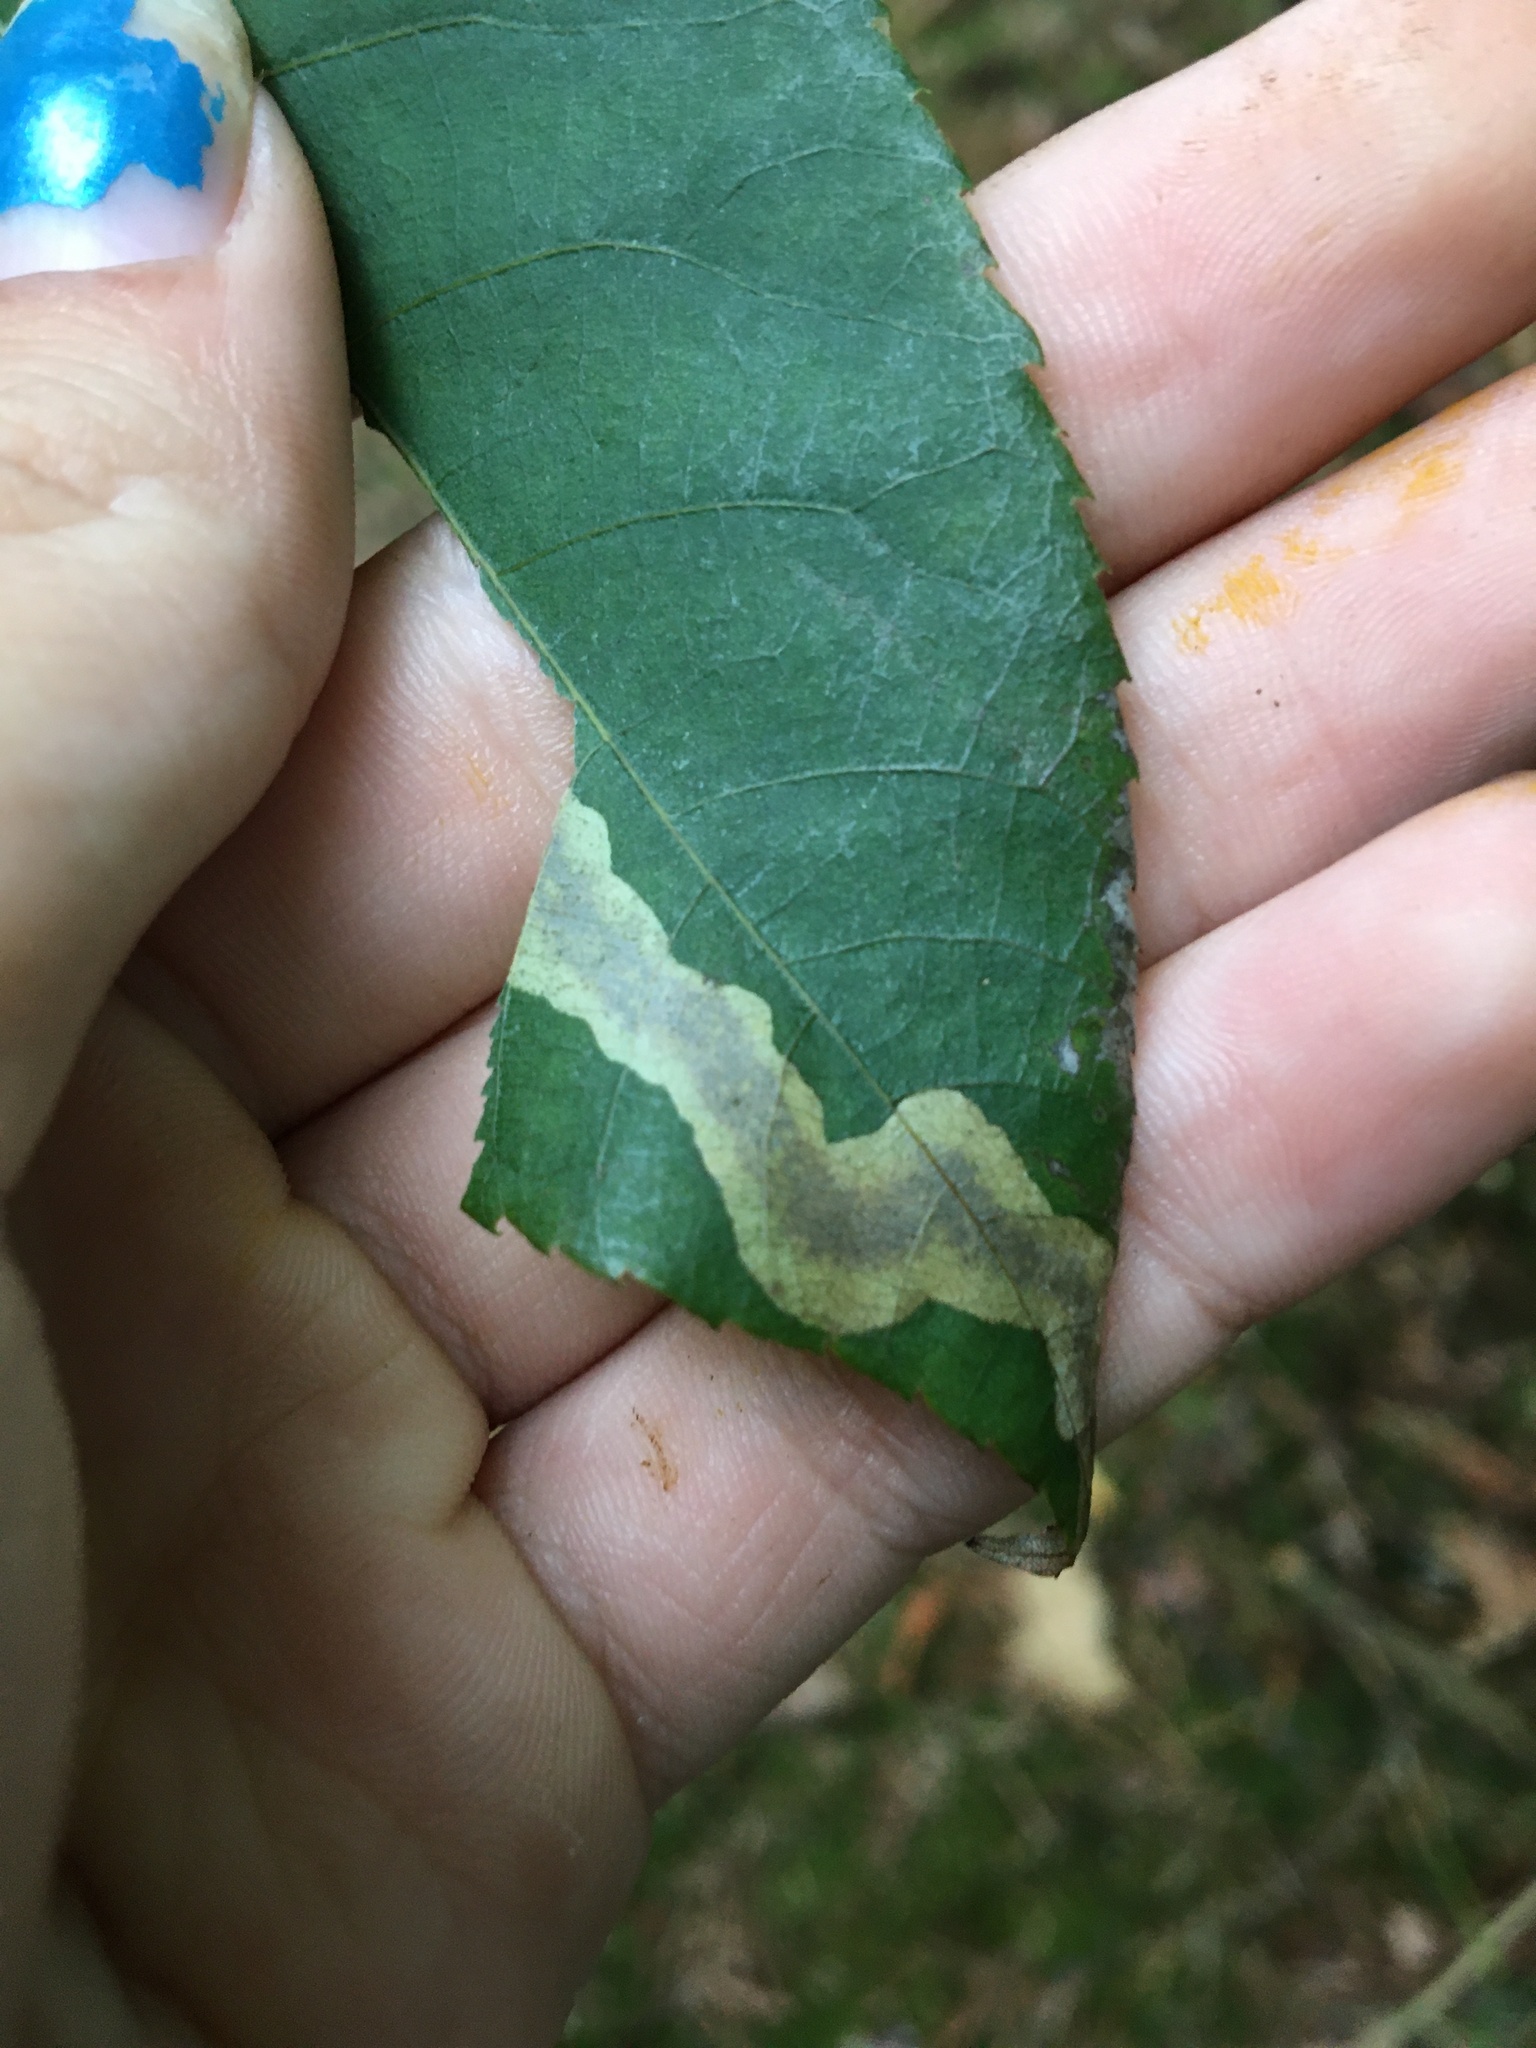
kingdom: Animalia
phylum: Arthropoda
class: Insecta
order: Lepidoptera
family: Gracillariidae
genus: Cameraria
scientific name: Cameraria caryaefoliella
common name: Pecan leafminer moth
